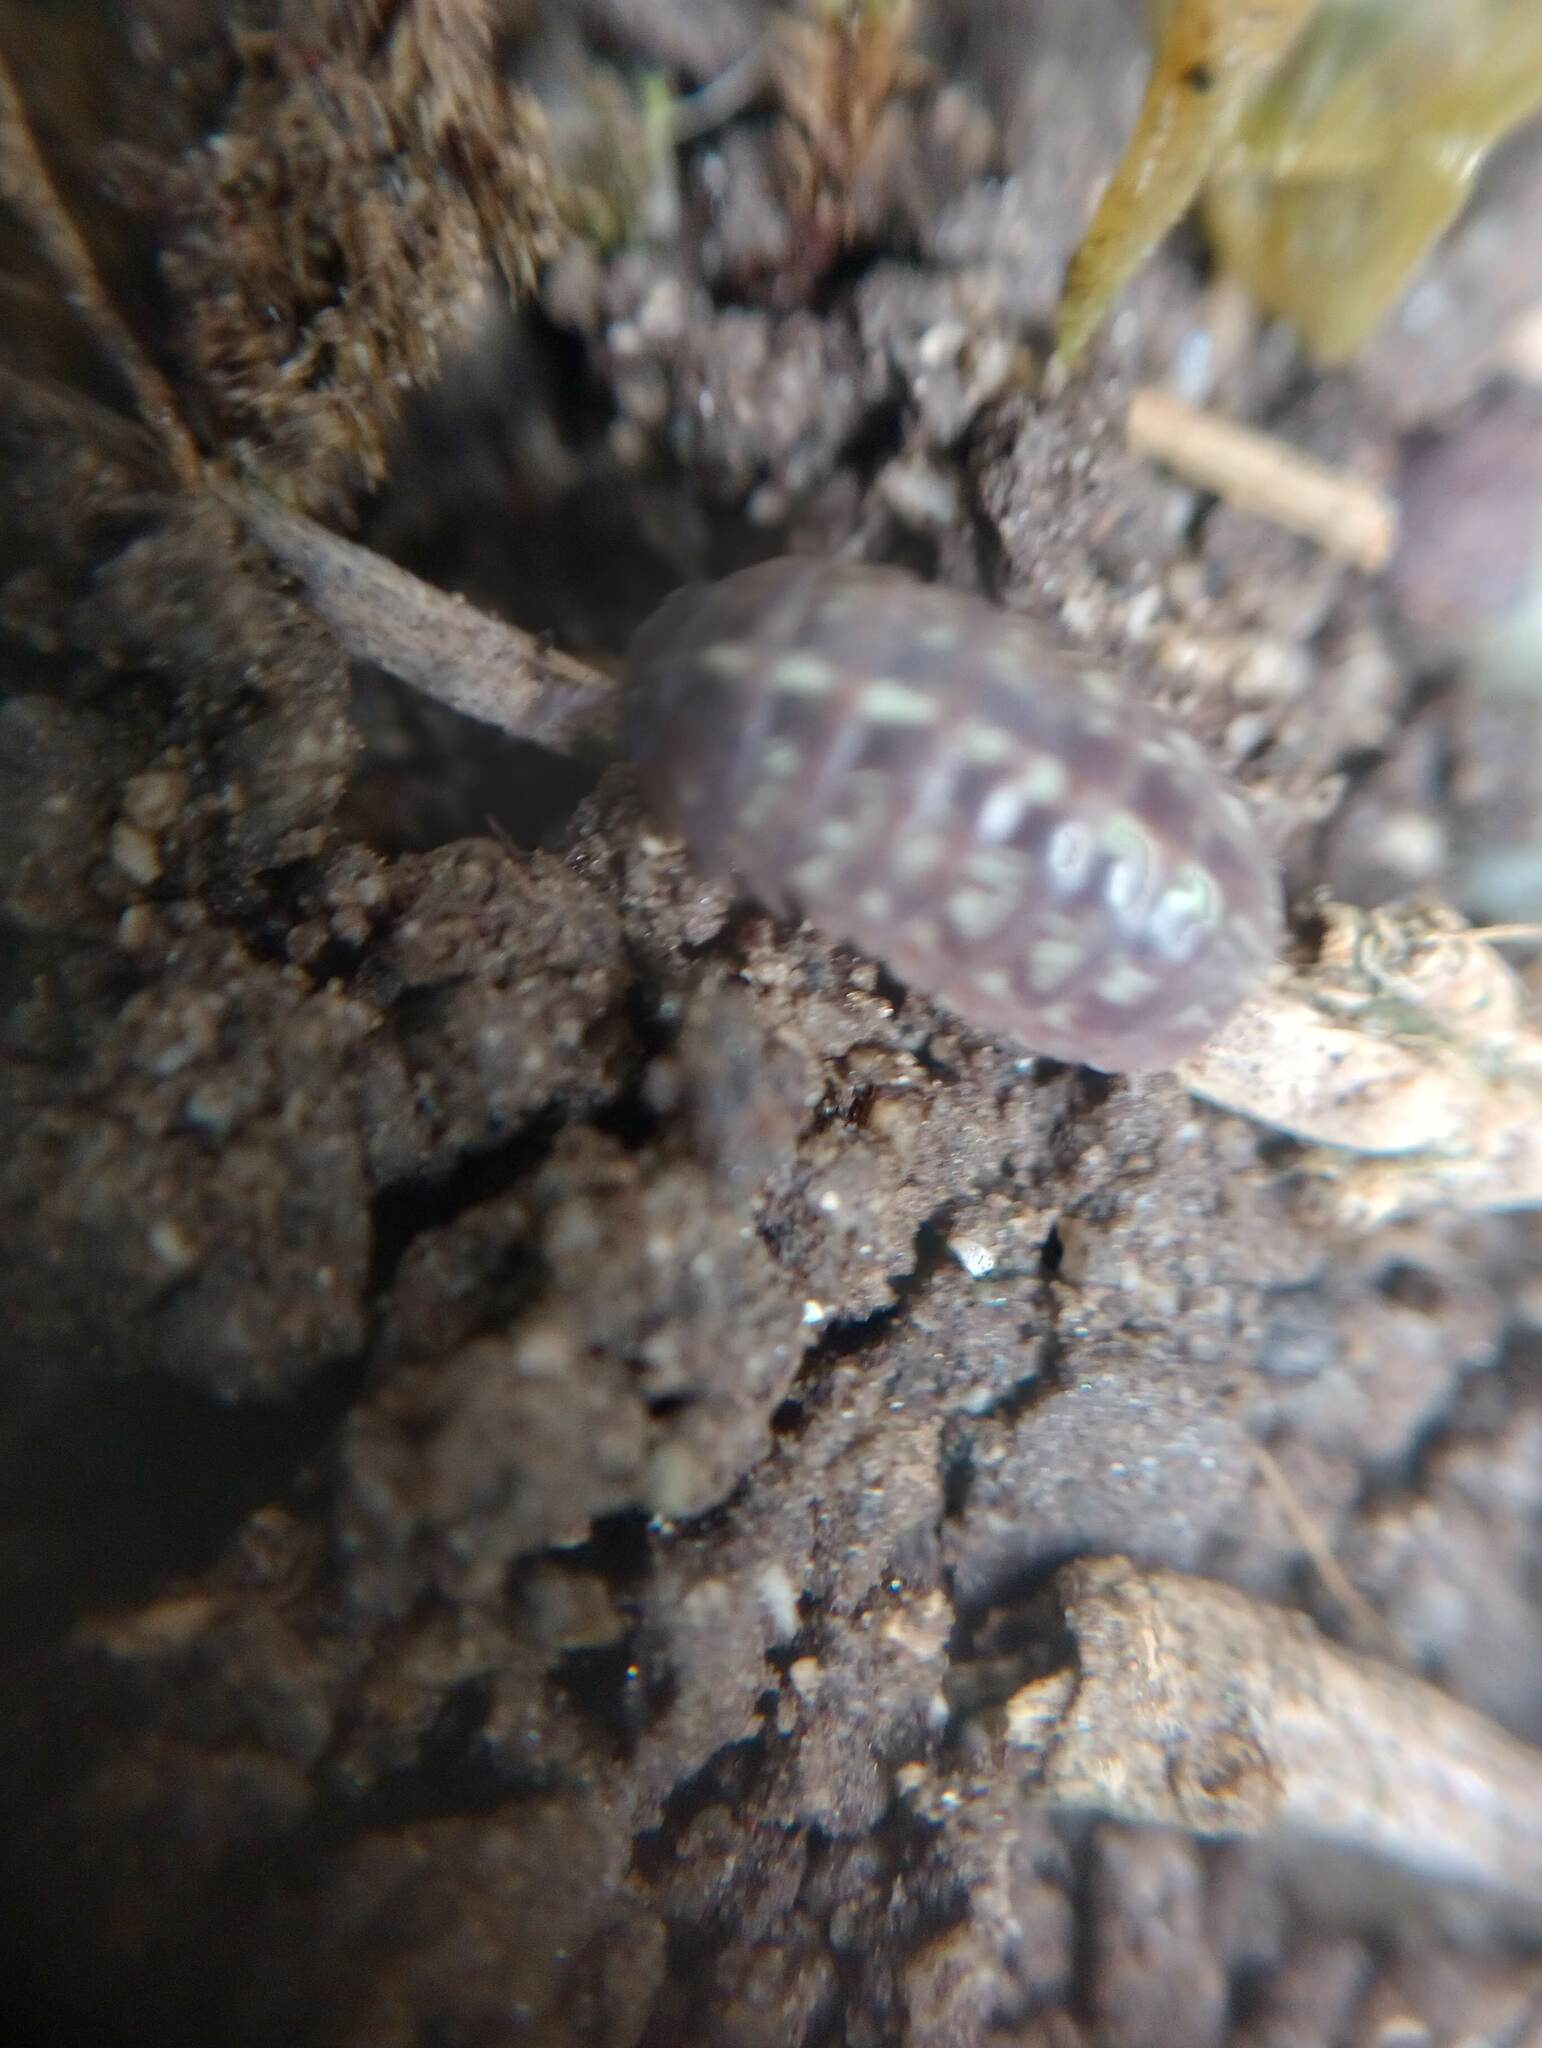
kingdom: Animalia
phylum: Arthropoda
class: Malacostraca
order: Isopoda
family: Armadillidiidae
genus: Armadillidium
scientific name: Armadillidium vulgare
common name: Common pill woodlouse
